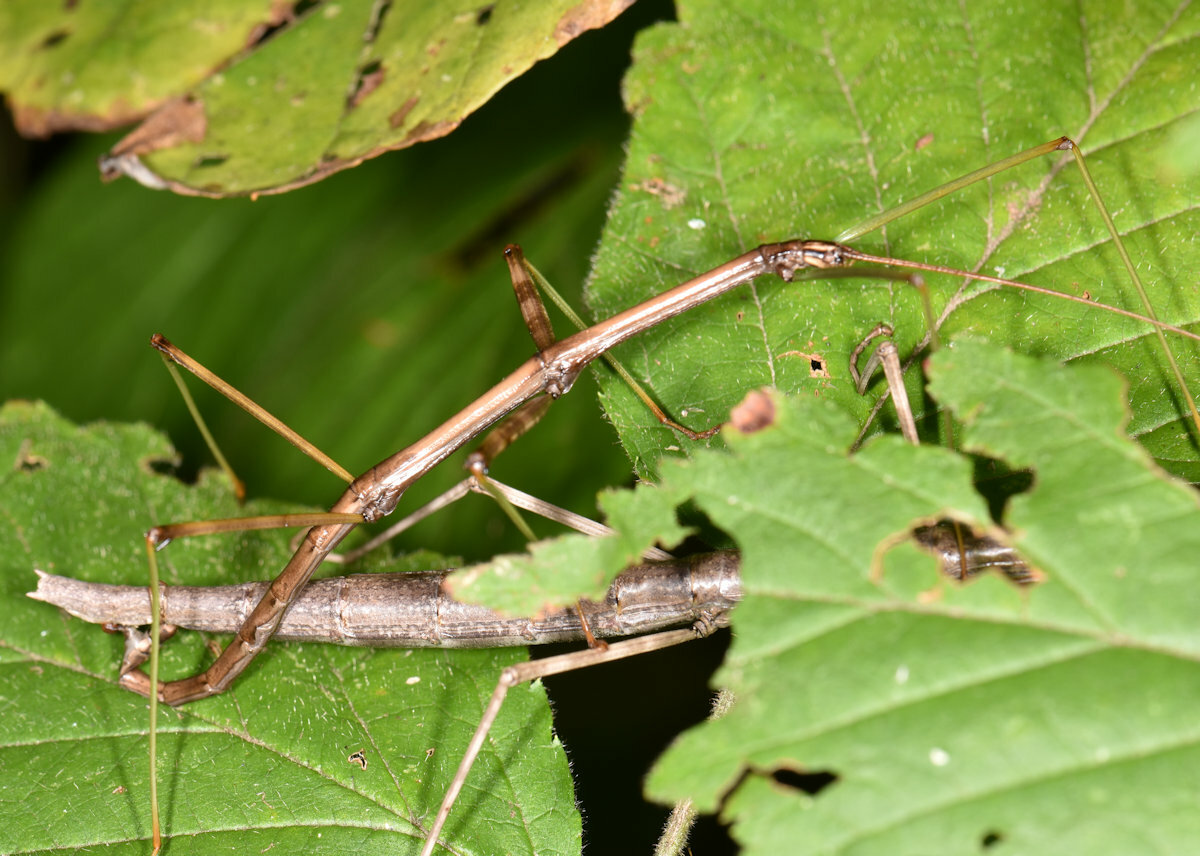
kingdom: Animalia
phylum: Arthropoda
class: Insecta
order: Phasmida
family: Diapheromeridae
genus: Diapheromera
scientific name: Diapheromera femorata
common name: Common american walkingstick
